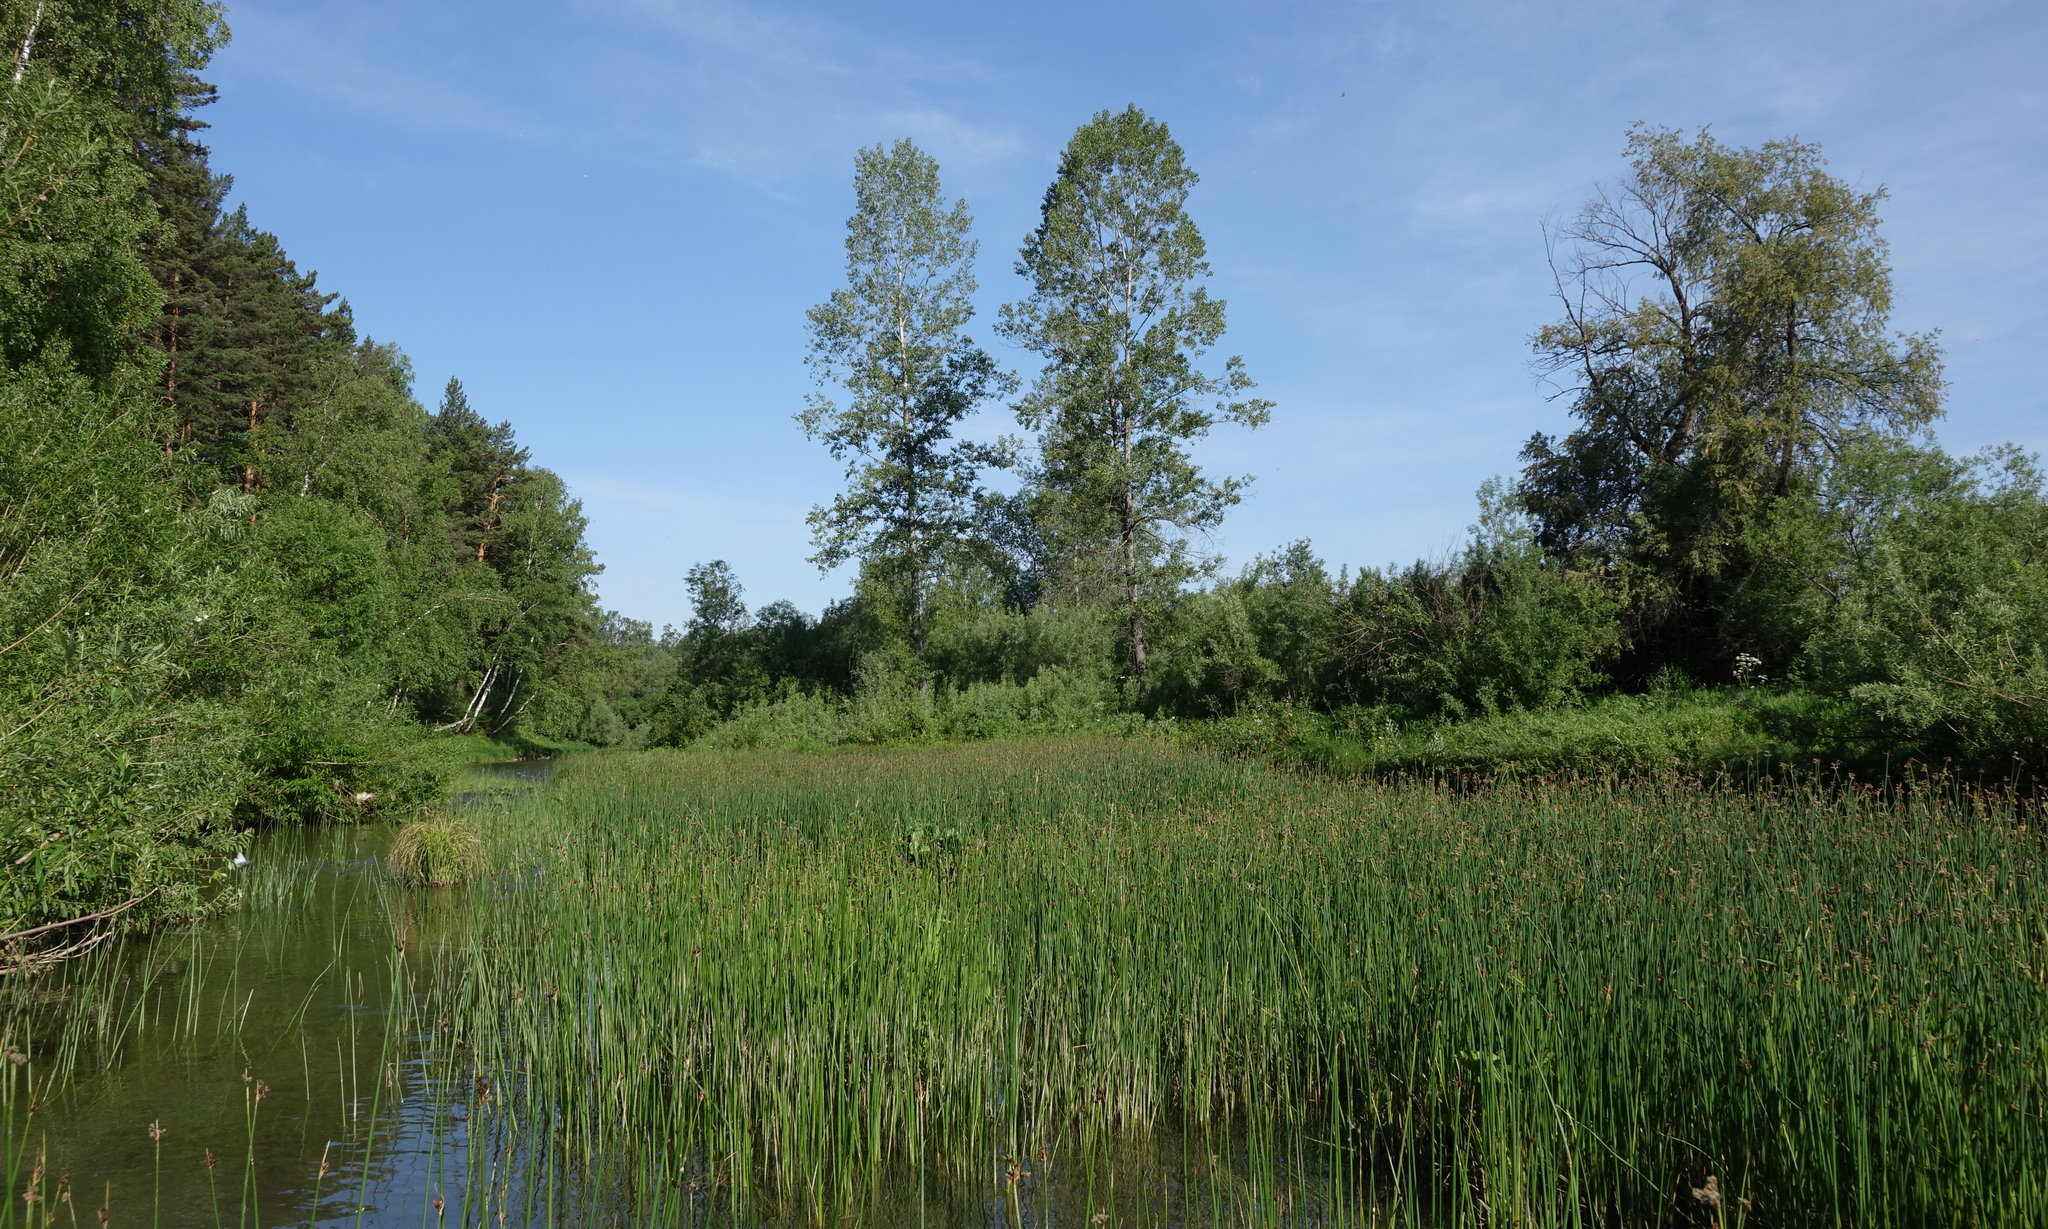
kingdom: Plantae
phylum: Tracheophyta
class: Liliopsida
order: Poales
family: Cyperaceae
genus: Schoenoplectus
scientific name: Schoenoplectus lacustris
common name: Common club-rush
